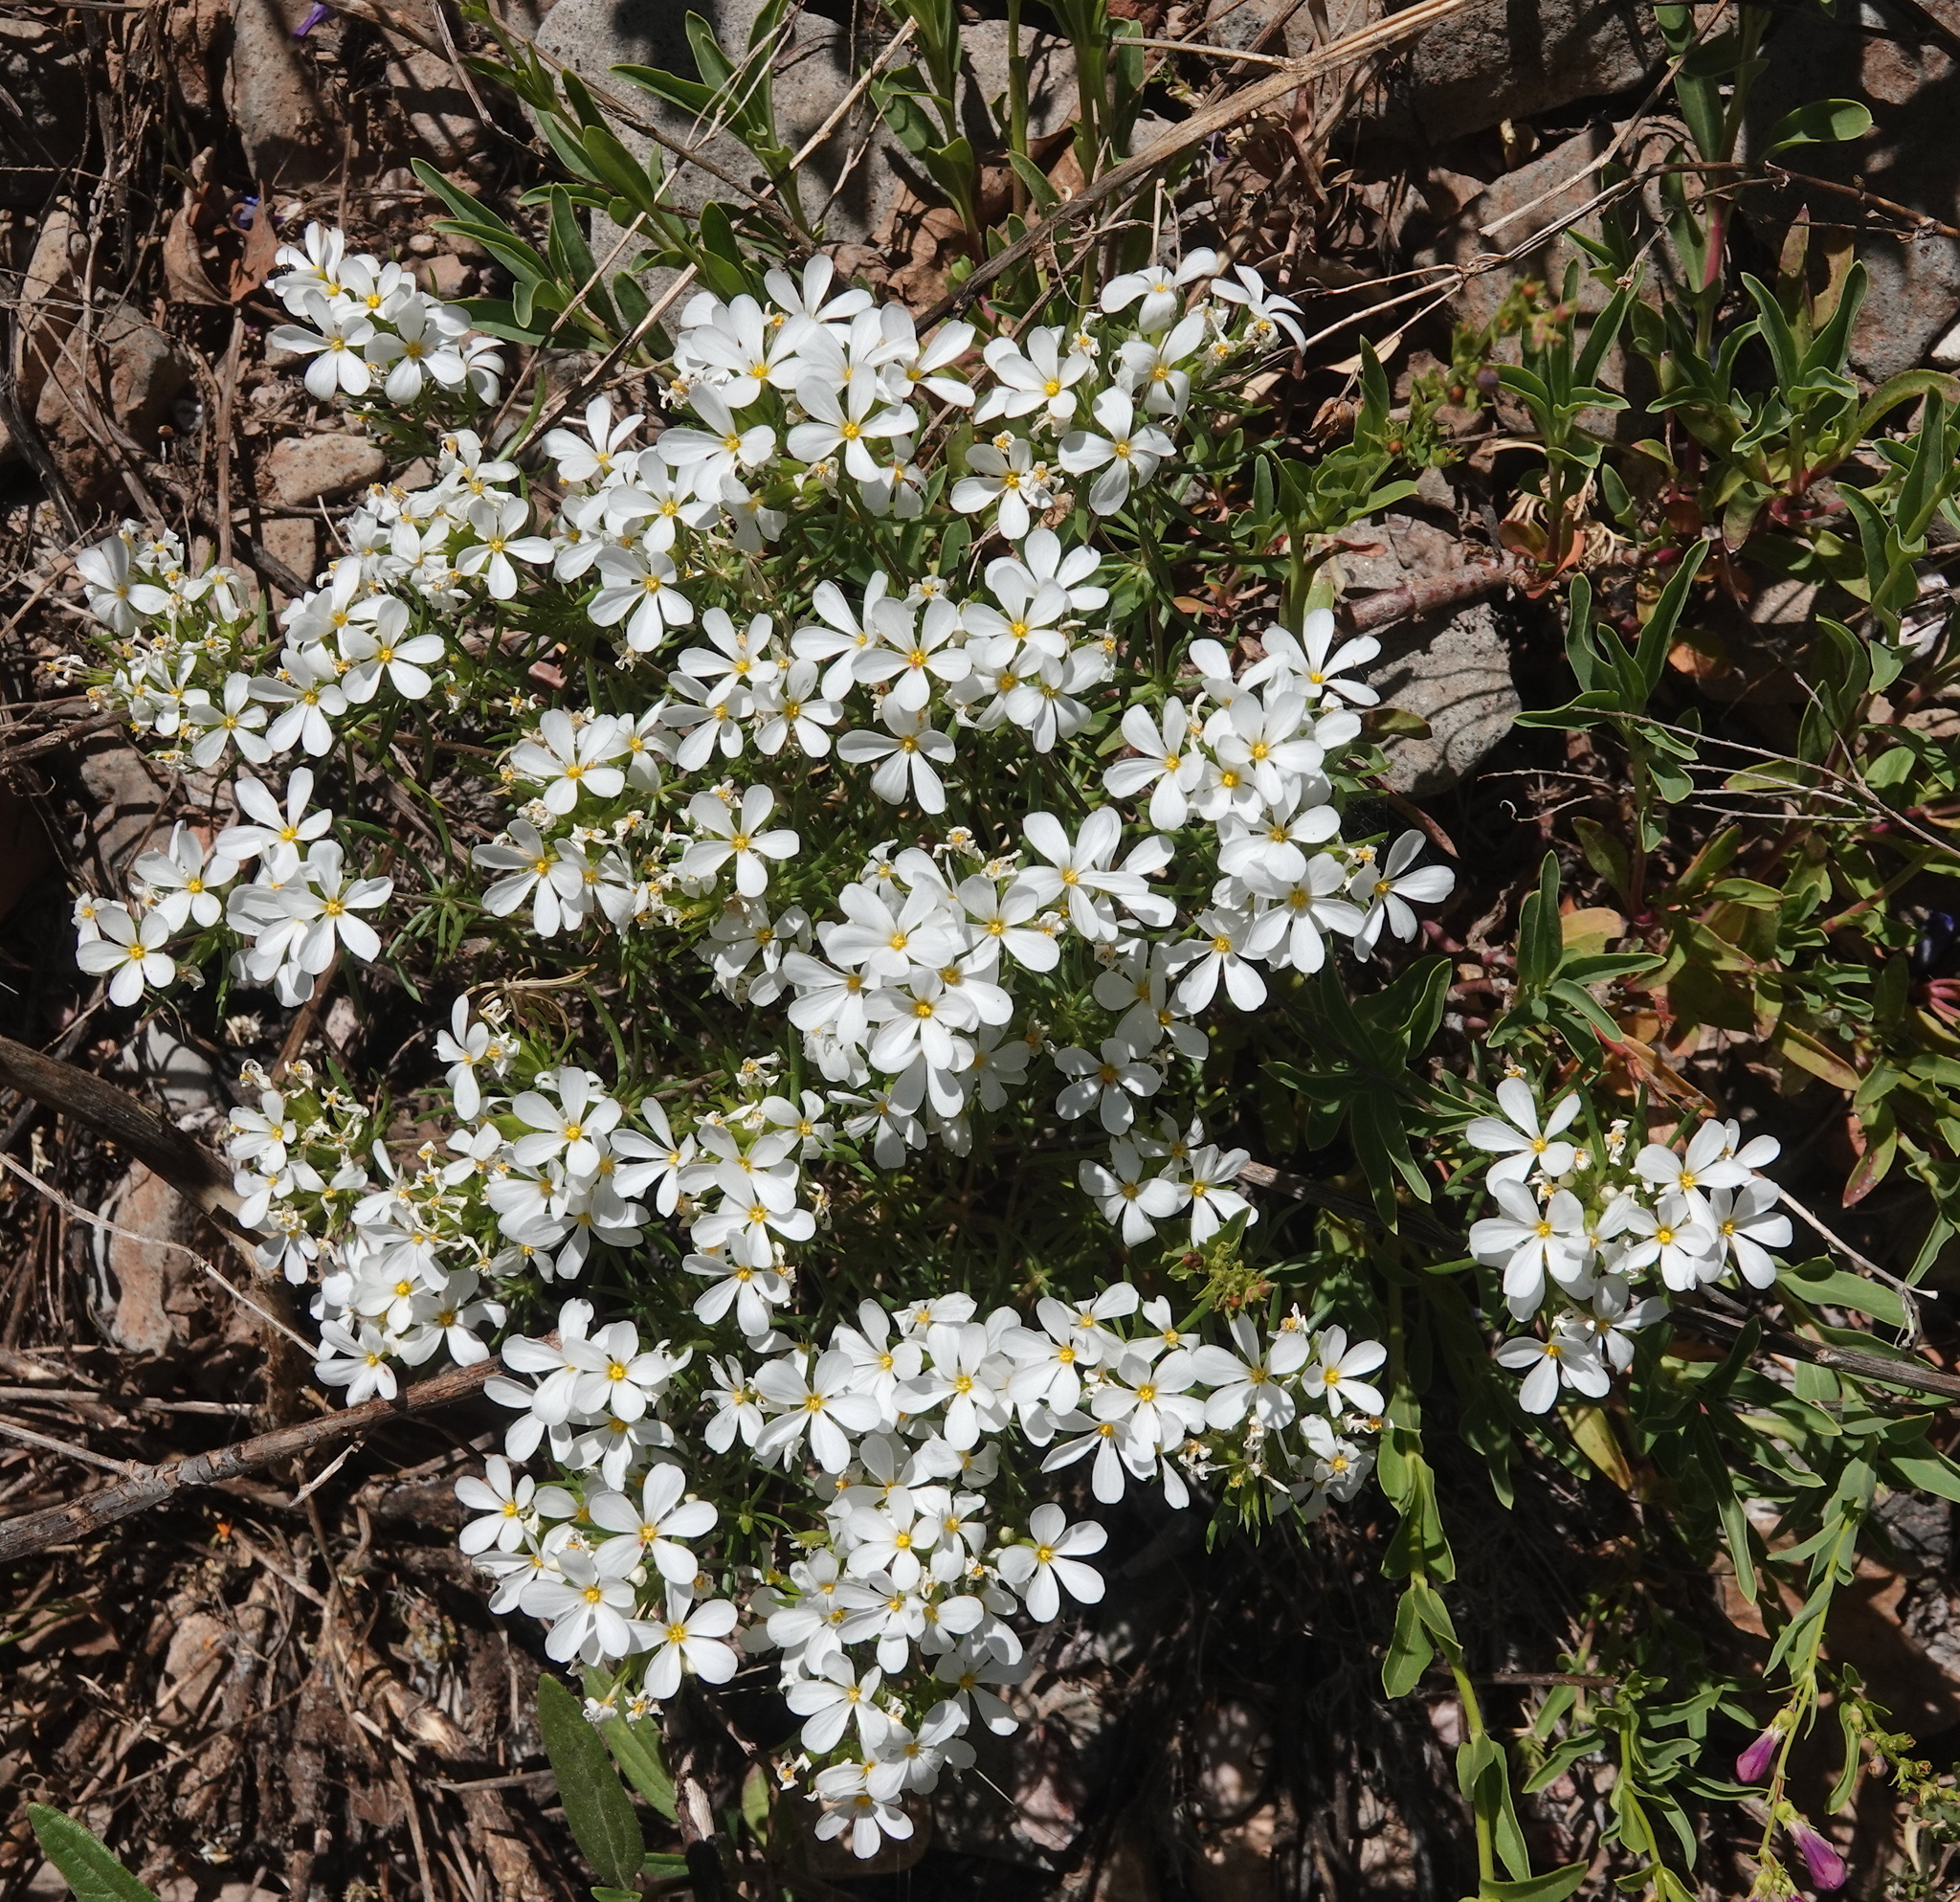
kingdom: Plantae
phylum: Tracheophyta
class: Magnoliopsida
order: Ericales
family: Polemoniaceae
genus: Leptosiphon
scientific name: Leptosiphon nuttallii
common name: Nuttall's linanthus
